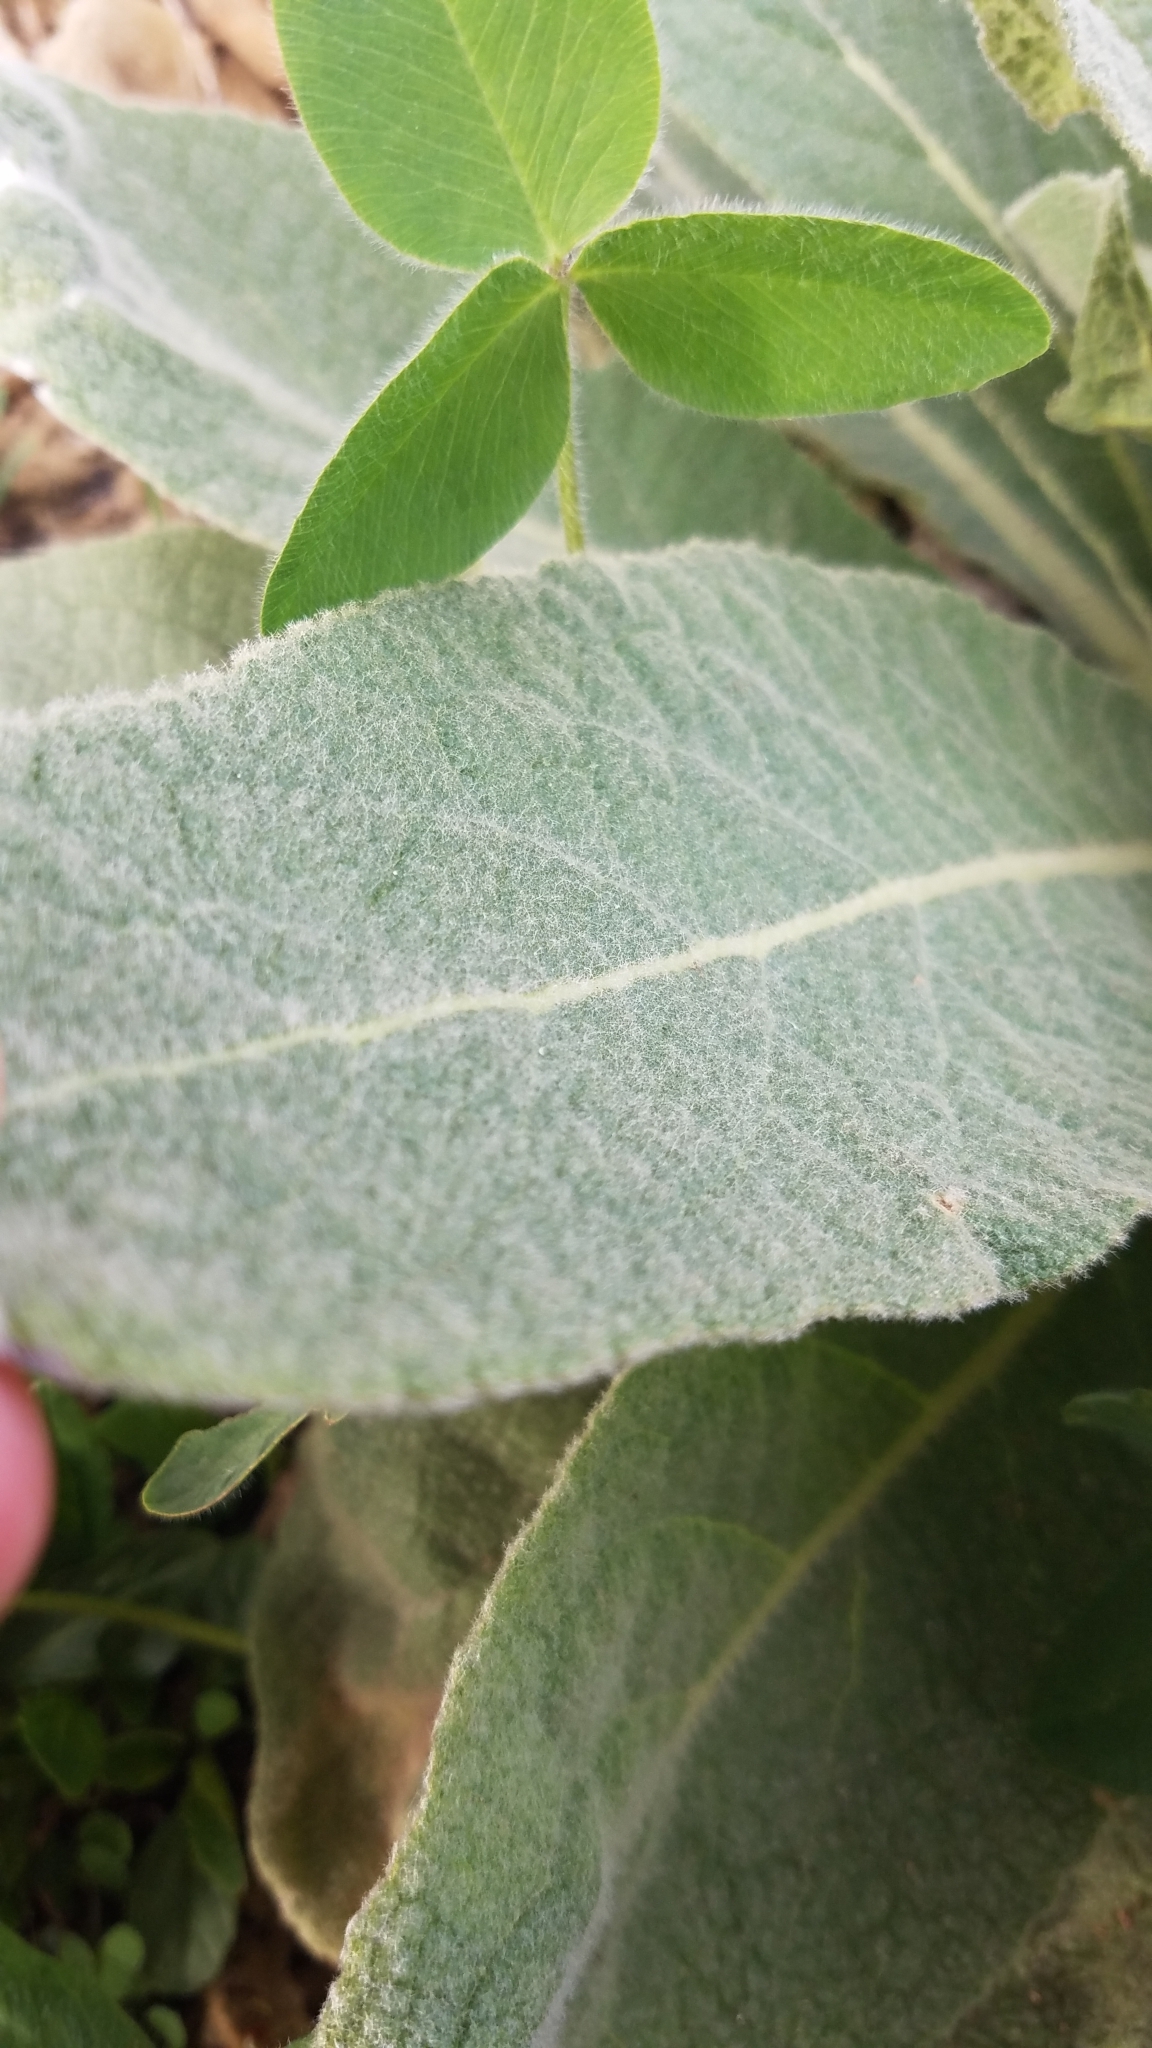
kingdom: Plantae
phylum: Tracheophyta
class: Magnoliopsida
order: Lamiales
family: Scrophulariaceae
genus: Verbascum
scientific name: Verbascum thapsus
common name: Common mullein
